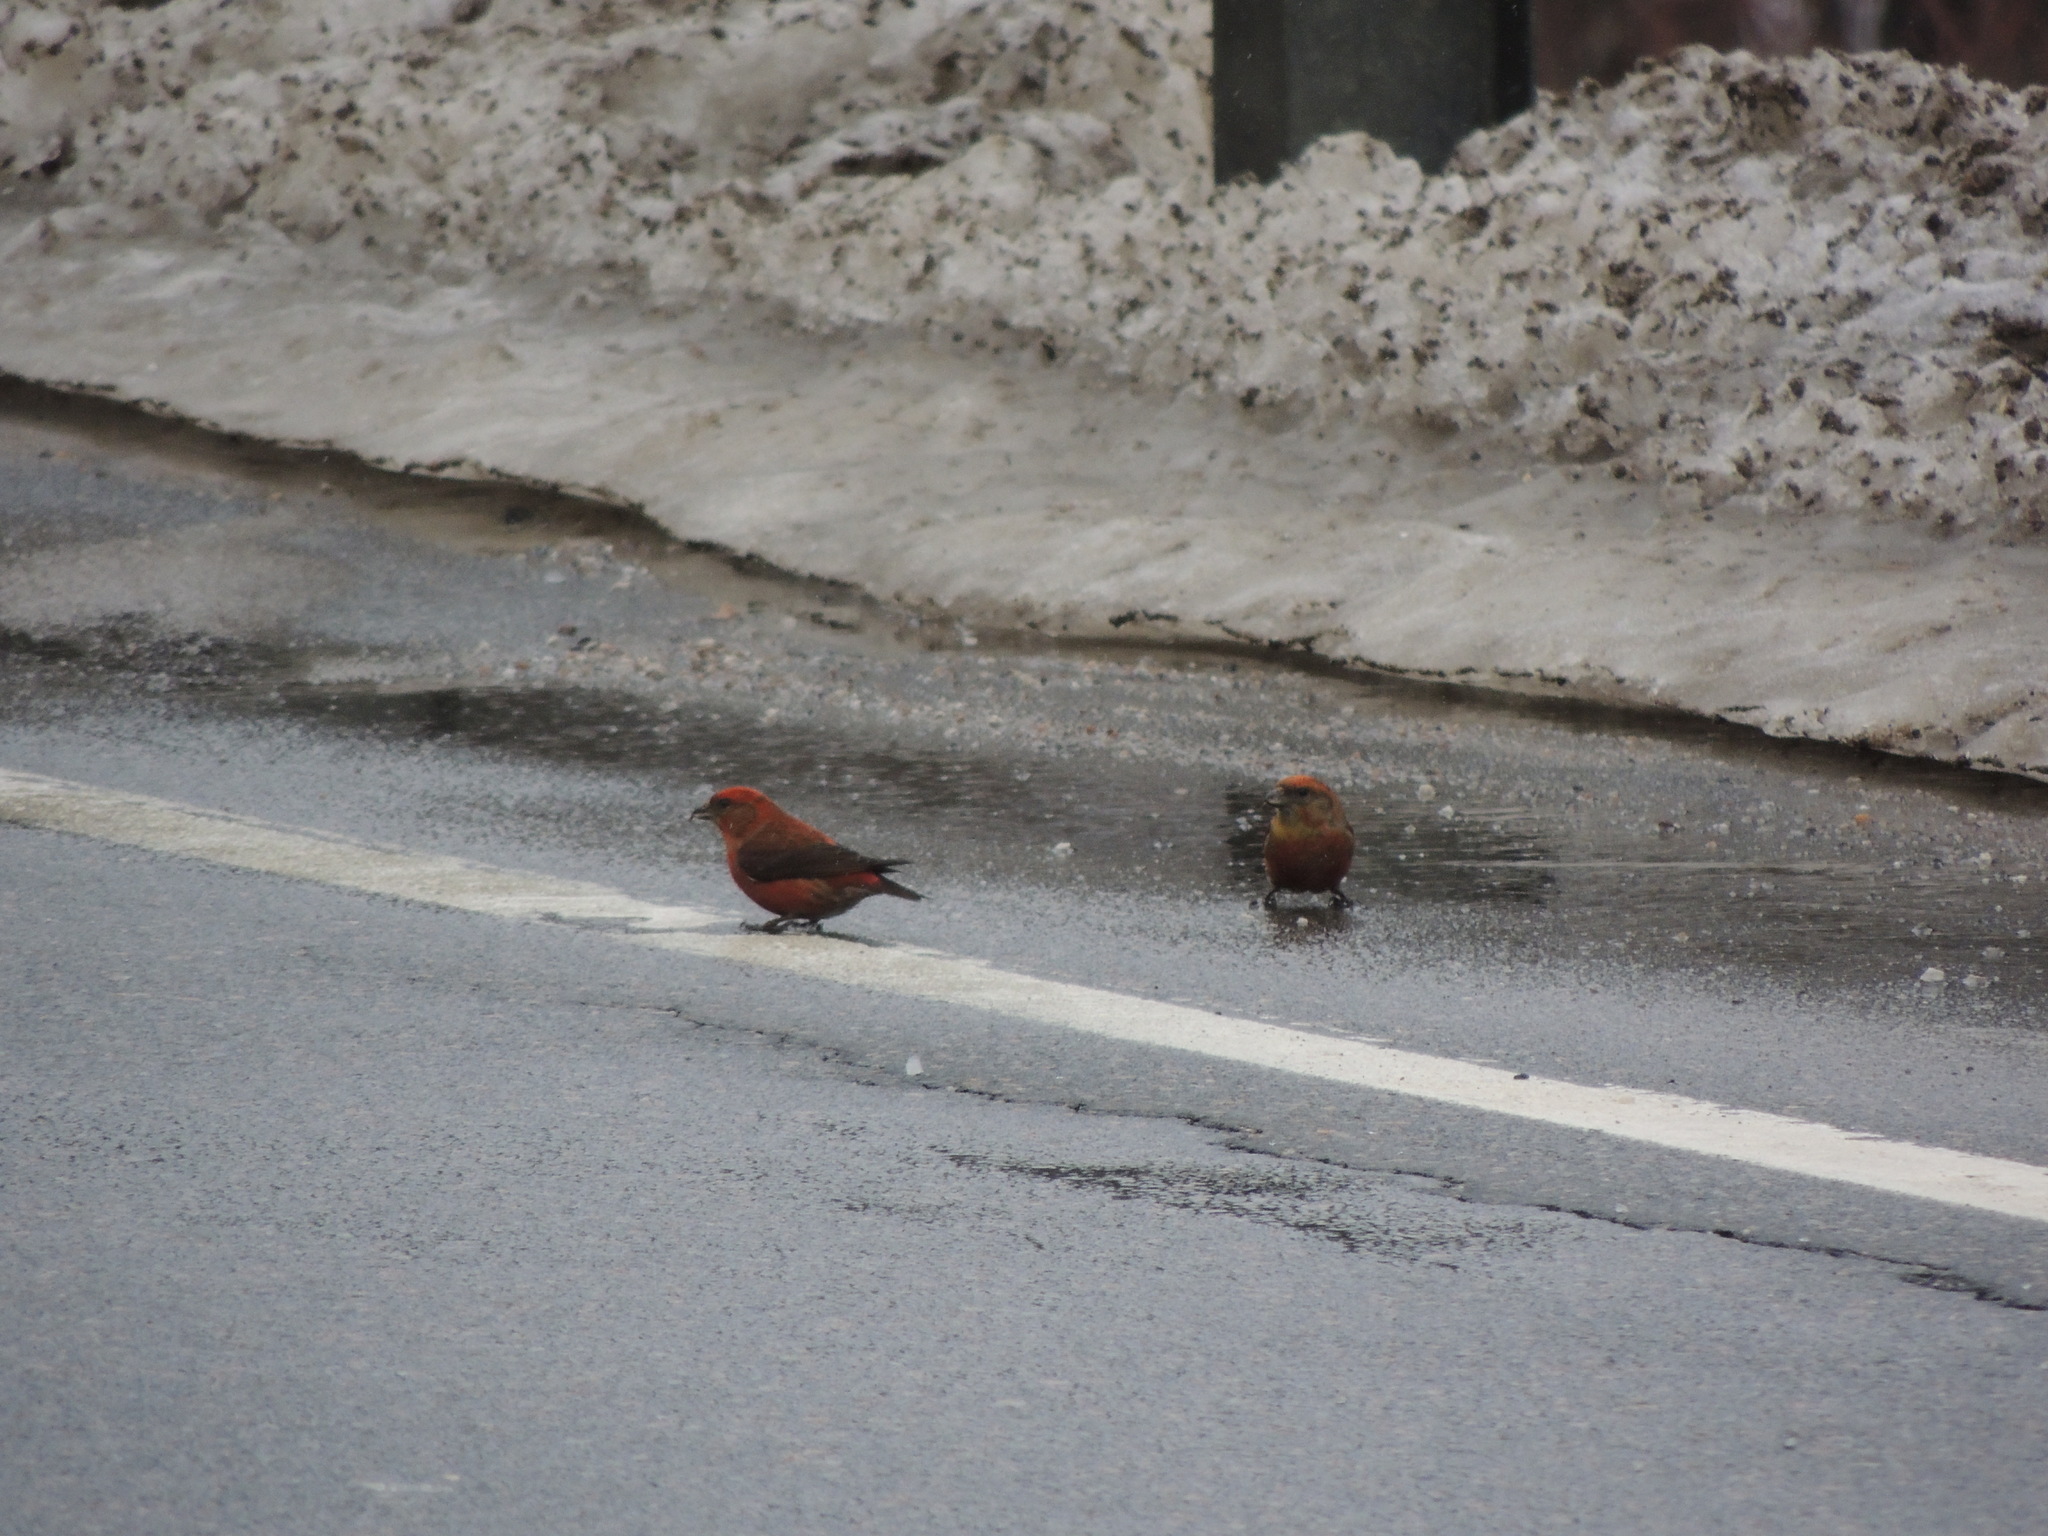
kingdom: Animalia
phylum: Chordata
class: Aves
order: Passeriformes
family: Fringillidae
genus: Loxia
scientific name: Loxia curvirostra
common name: Red crossbill
